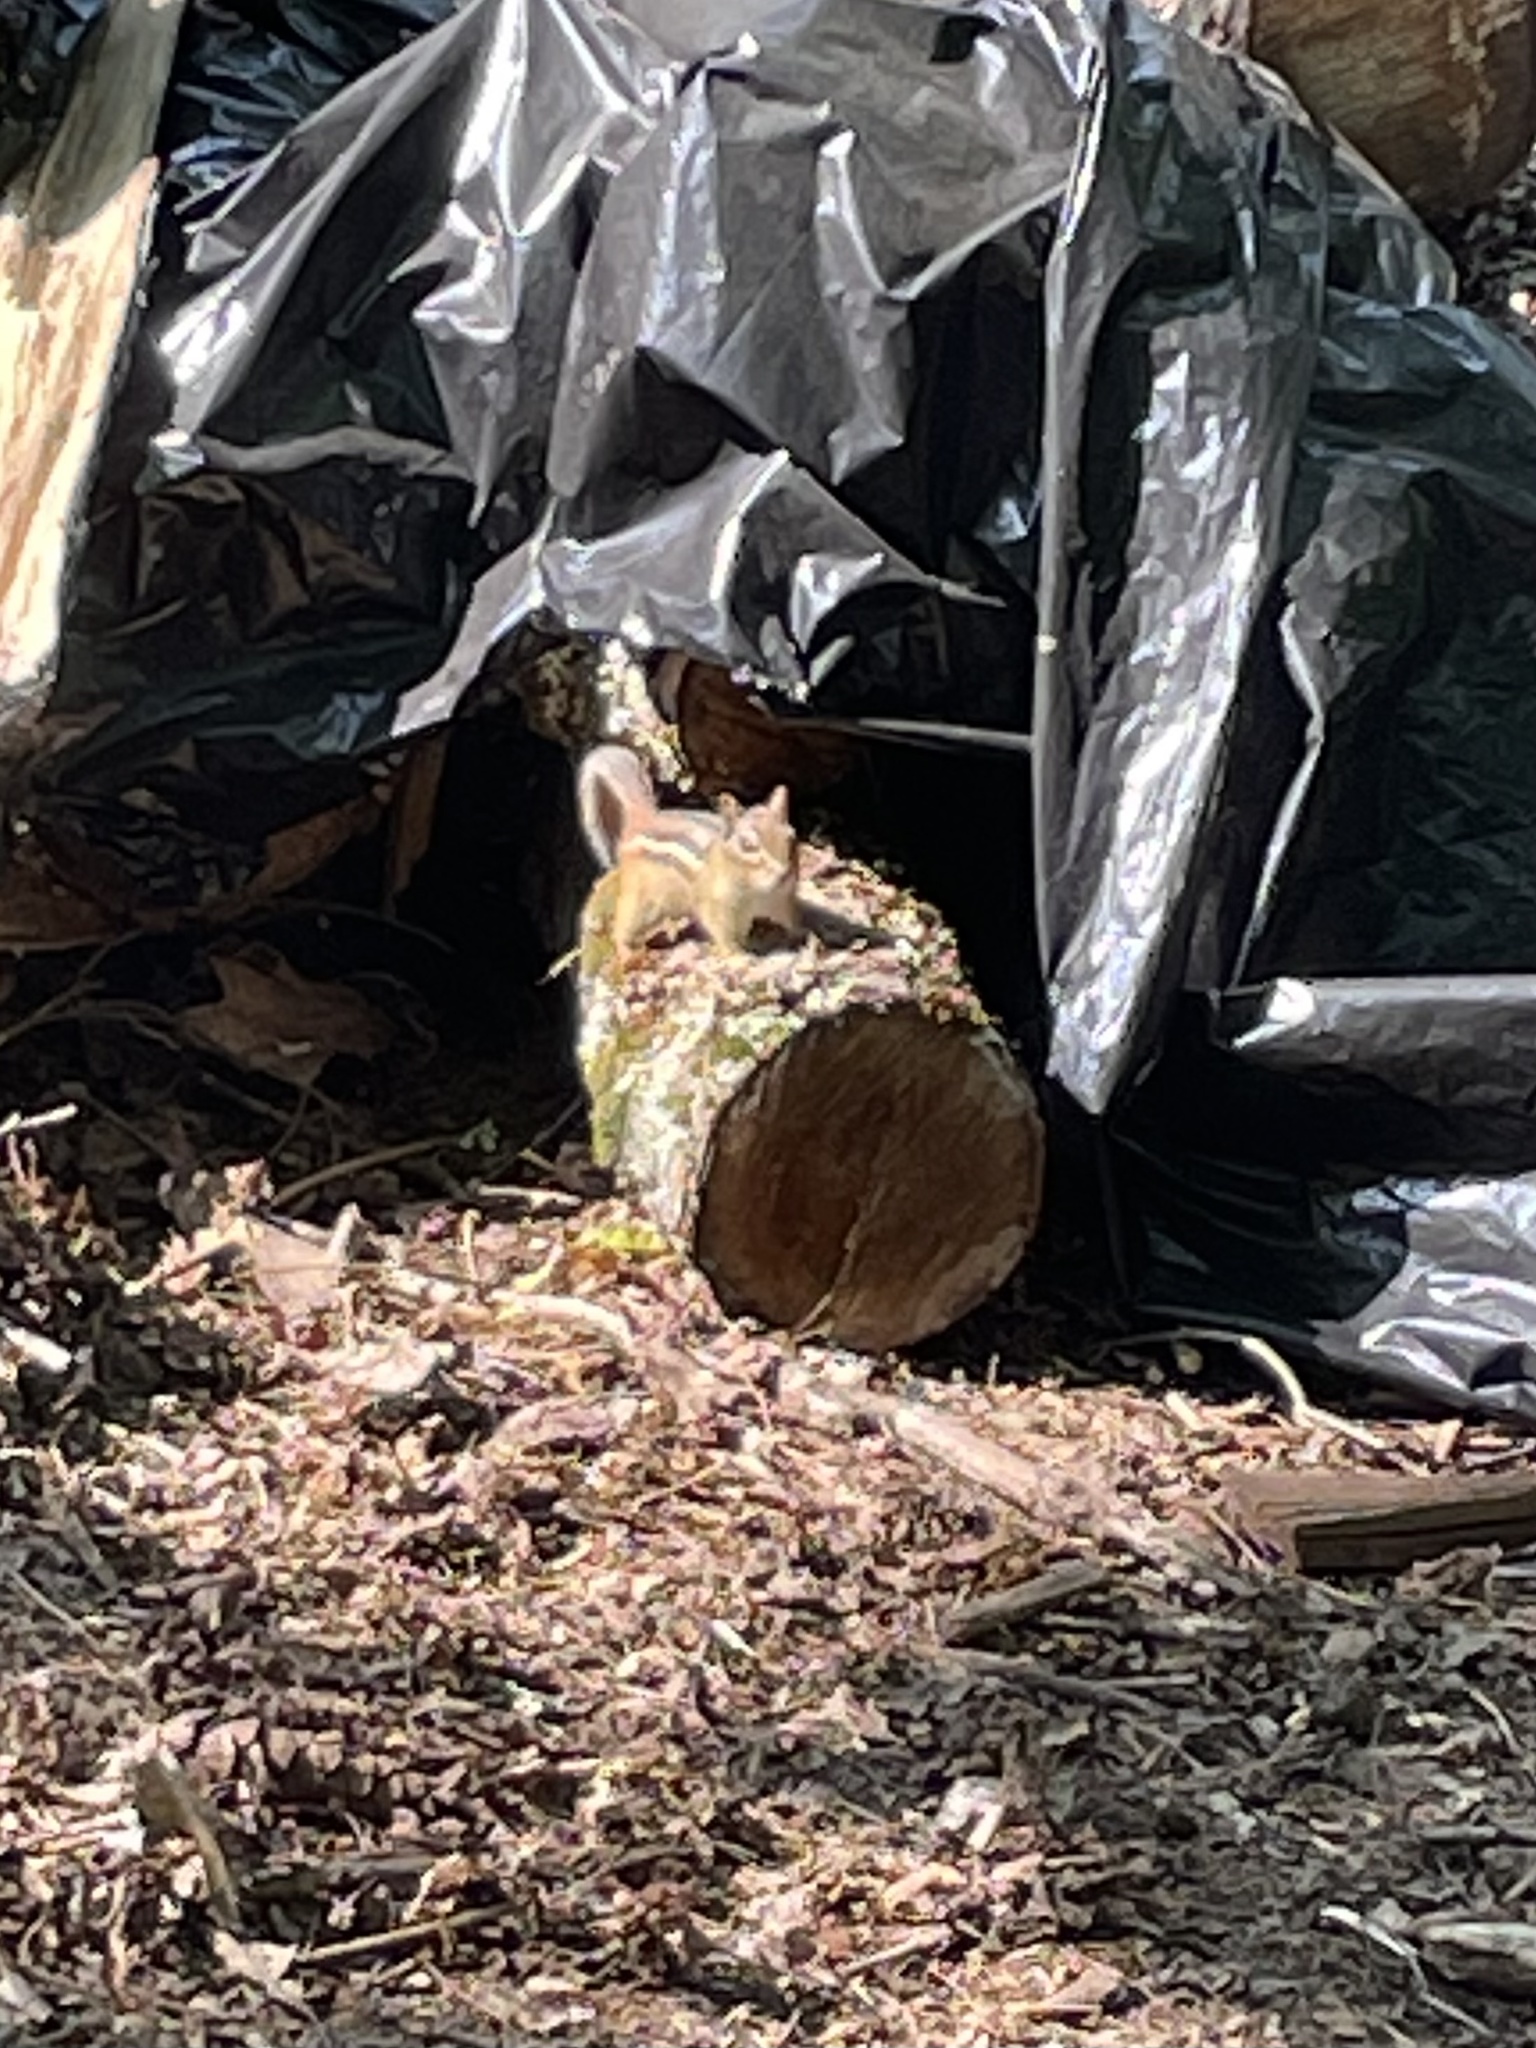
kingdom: Animalia
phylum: Chordata
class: Mammalia
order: Rodentia
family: Sciuridae
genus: Tamias
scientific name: Tamias striatus
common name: Eastern chipmunk
